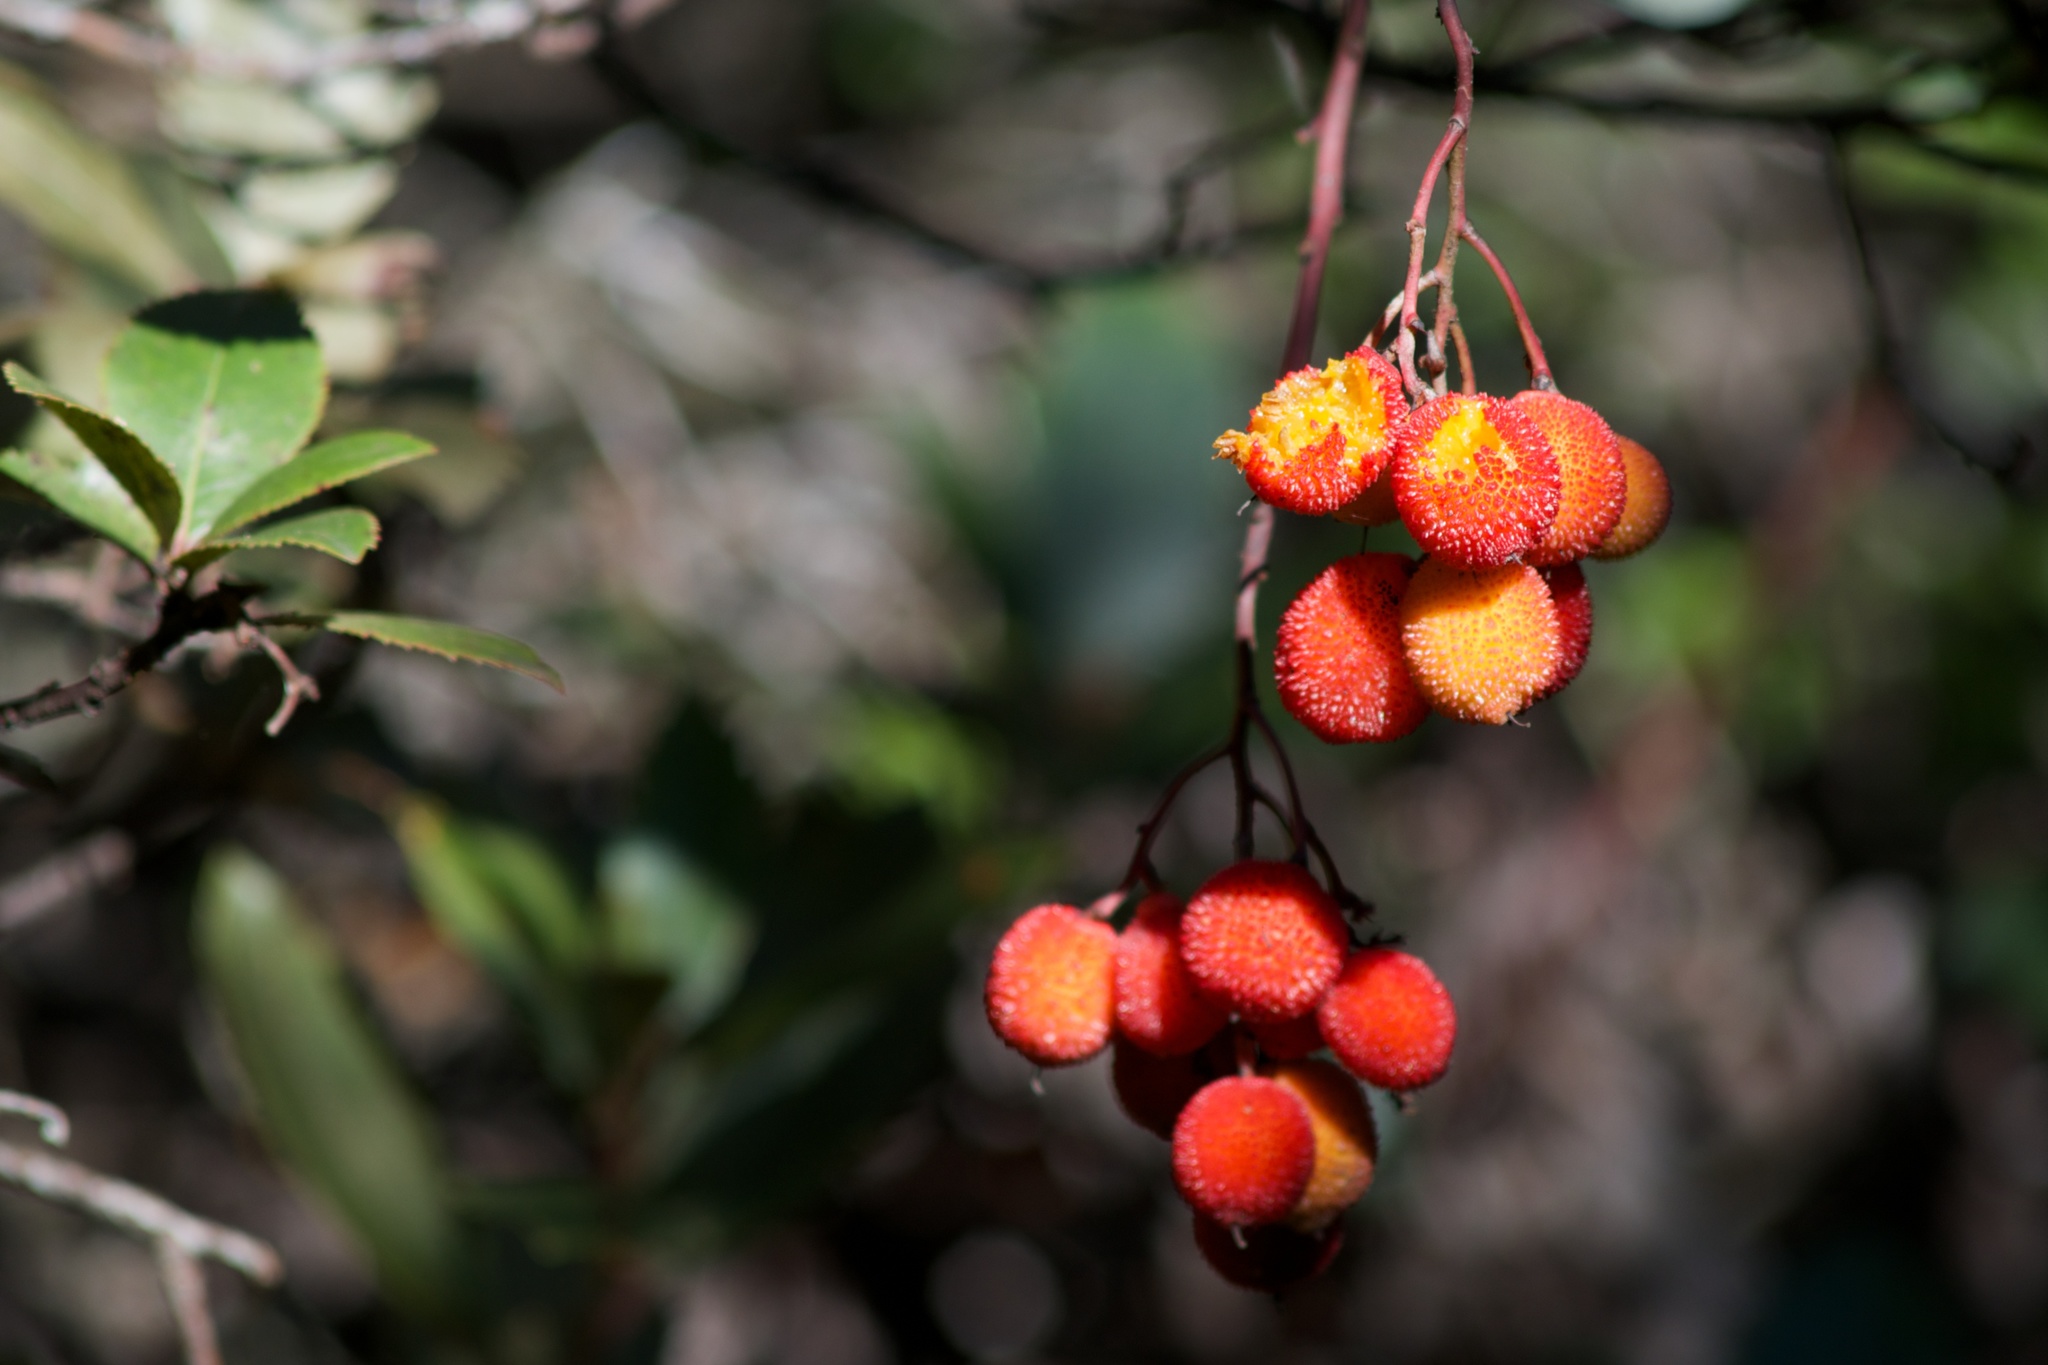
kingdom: Plantae
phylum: Tracheophyta
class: Magnoliopsida
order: Ericales
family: Ericaceae
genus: Arbutus
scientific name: Arbutus unedo
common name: Strawberry-tree
